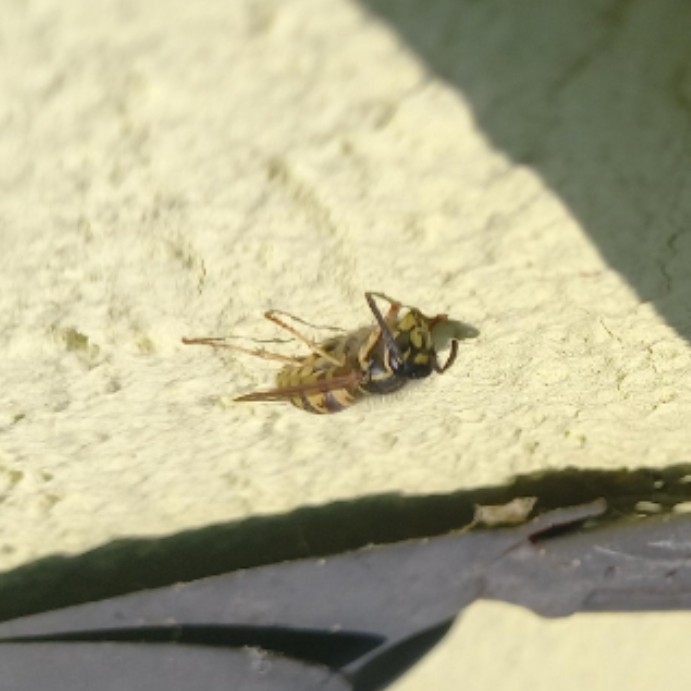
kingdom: Animalia
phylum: Arthropoda
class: Insecta
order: Hymenoptera
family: Vespidae
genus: Vespula
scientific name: Vespula vulgaris
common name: Common wasp
